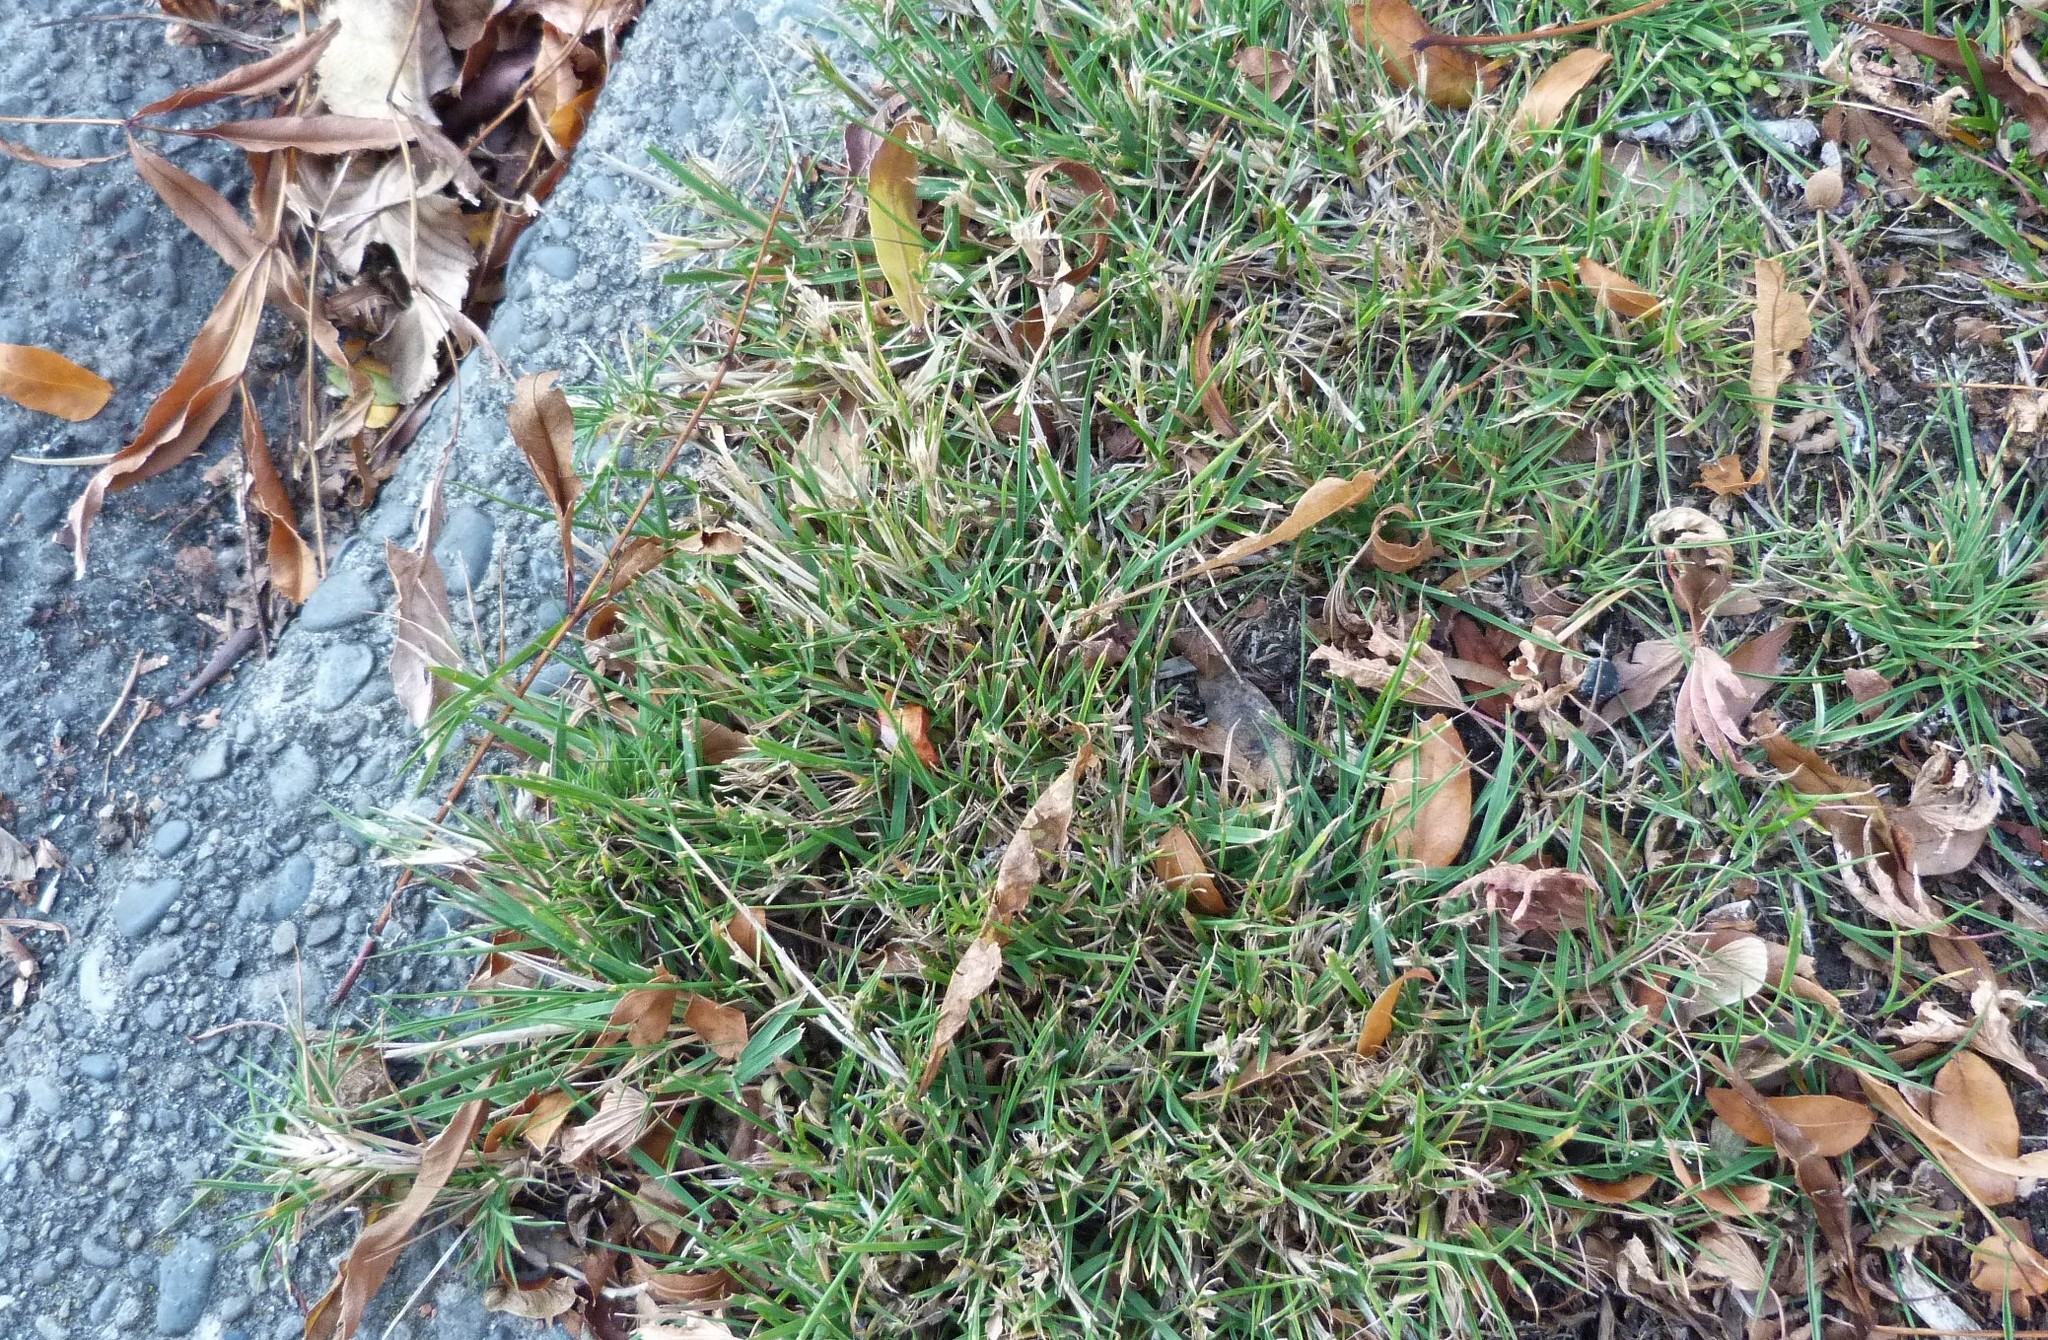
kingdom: Plantae
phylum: Tracheophyta
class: Liliopsida
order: Poales
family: Poaceae
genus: Agrostis
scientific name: Agrostis capillaris
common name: Colonial bentgrass
